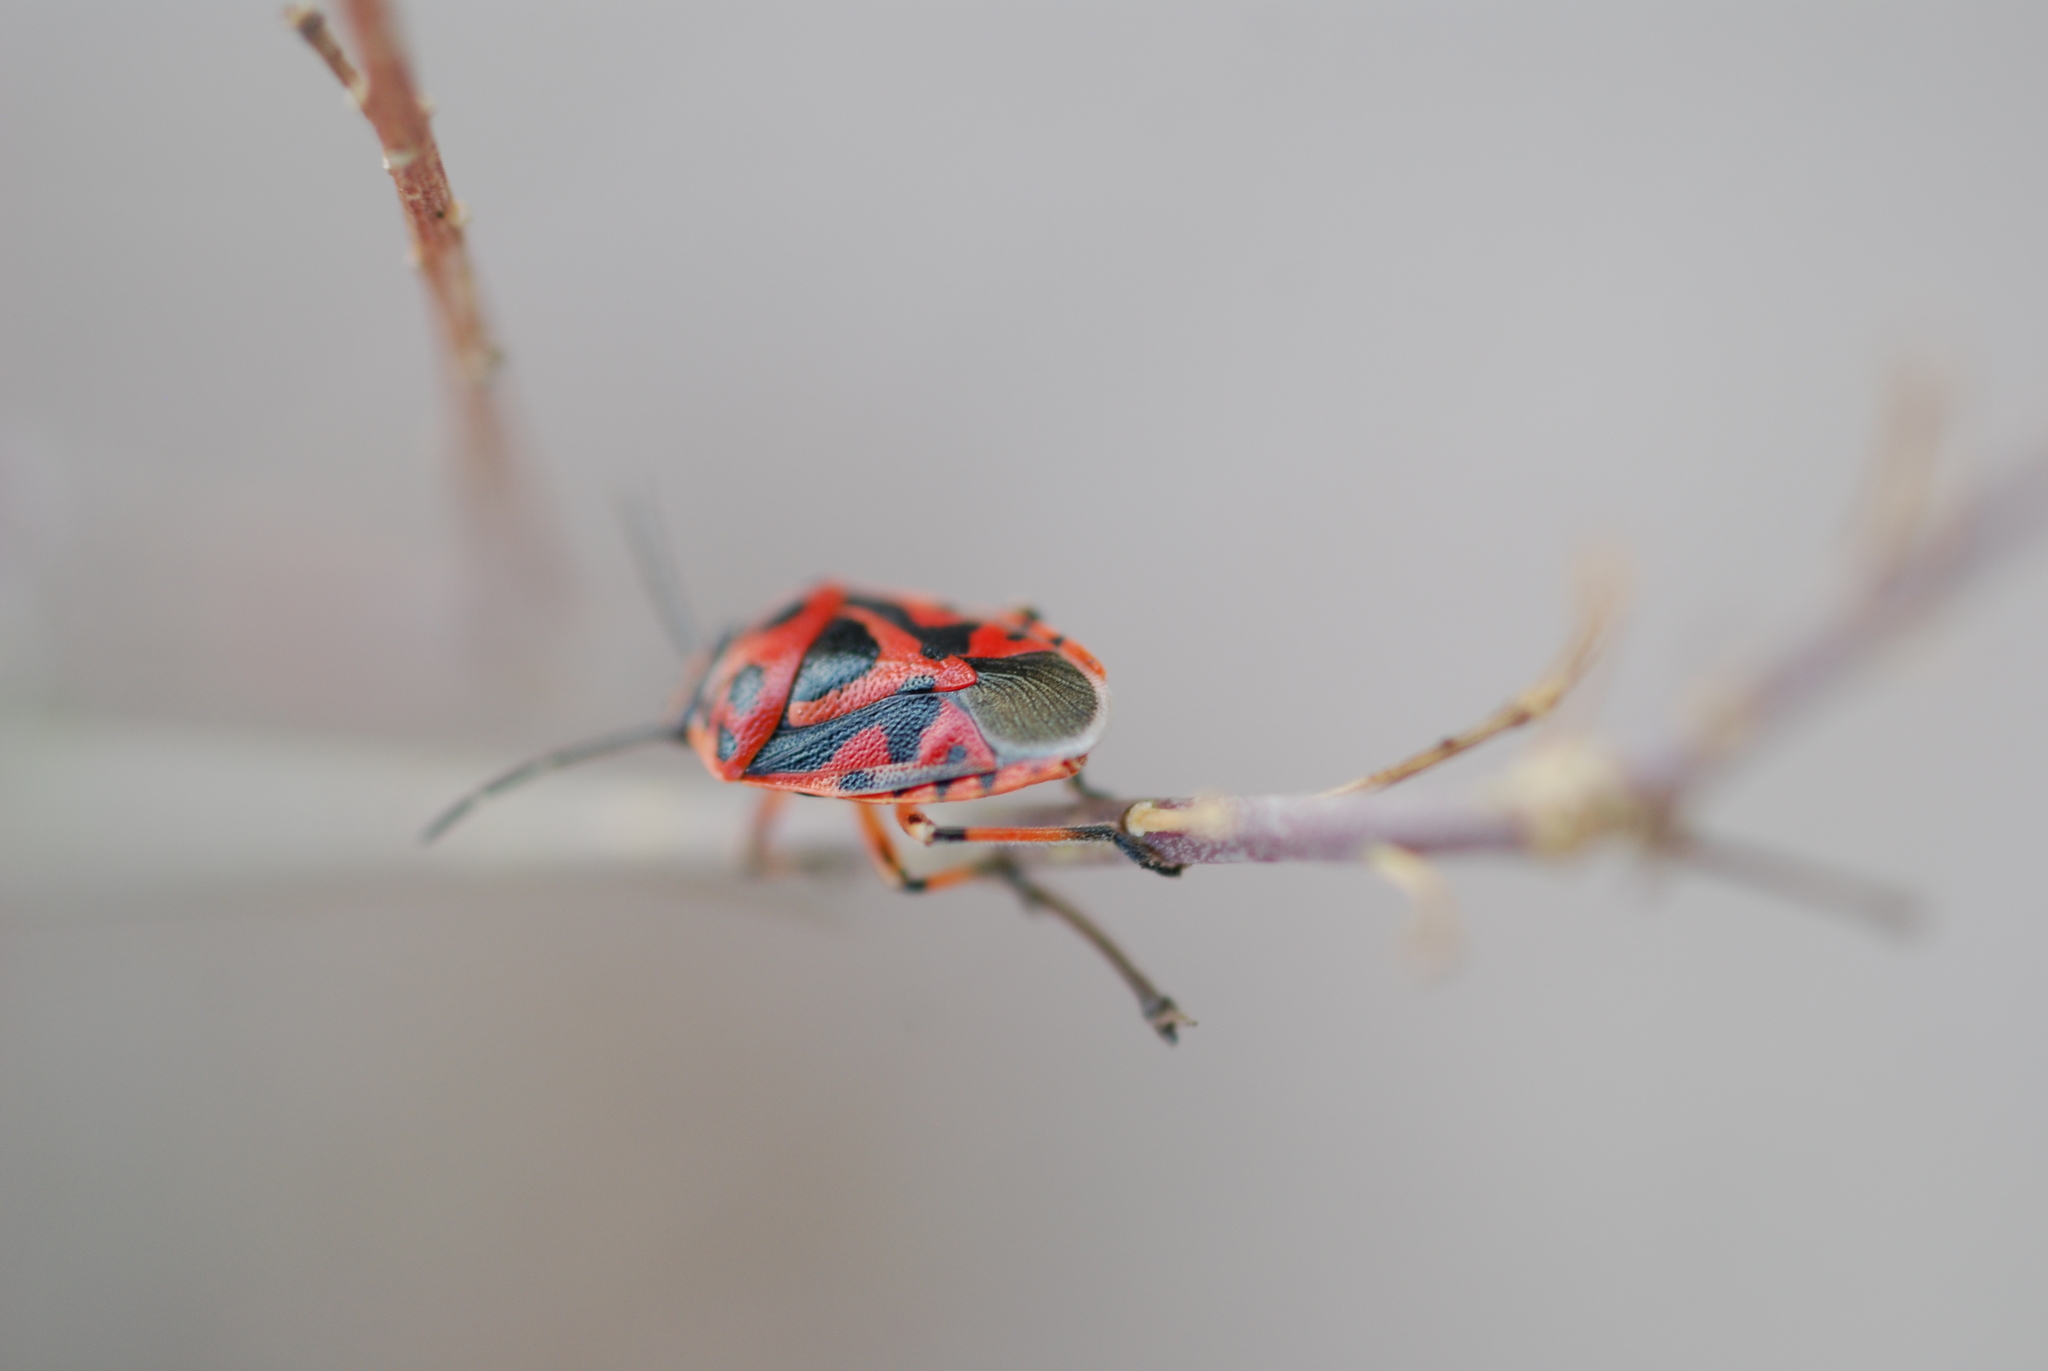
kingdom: Animalia
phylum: Arthropoda
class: Insecta
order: Hemiptera
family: Pentatomidae
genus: Eurydema
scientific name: Eurydema ornata
